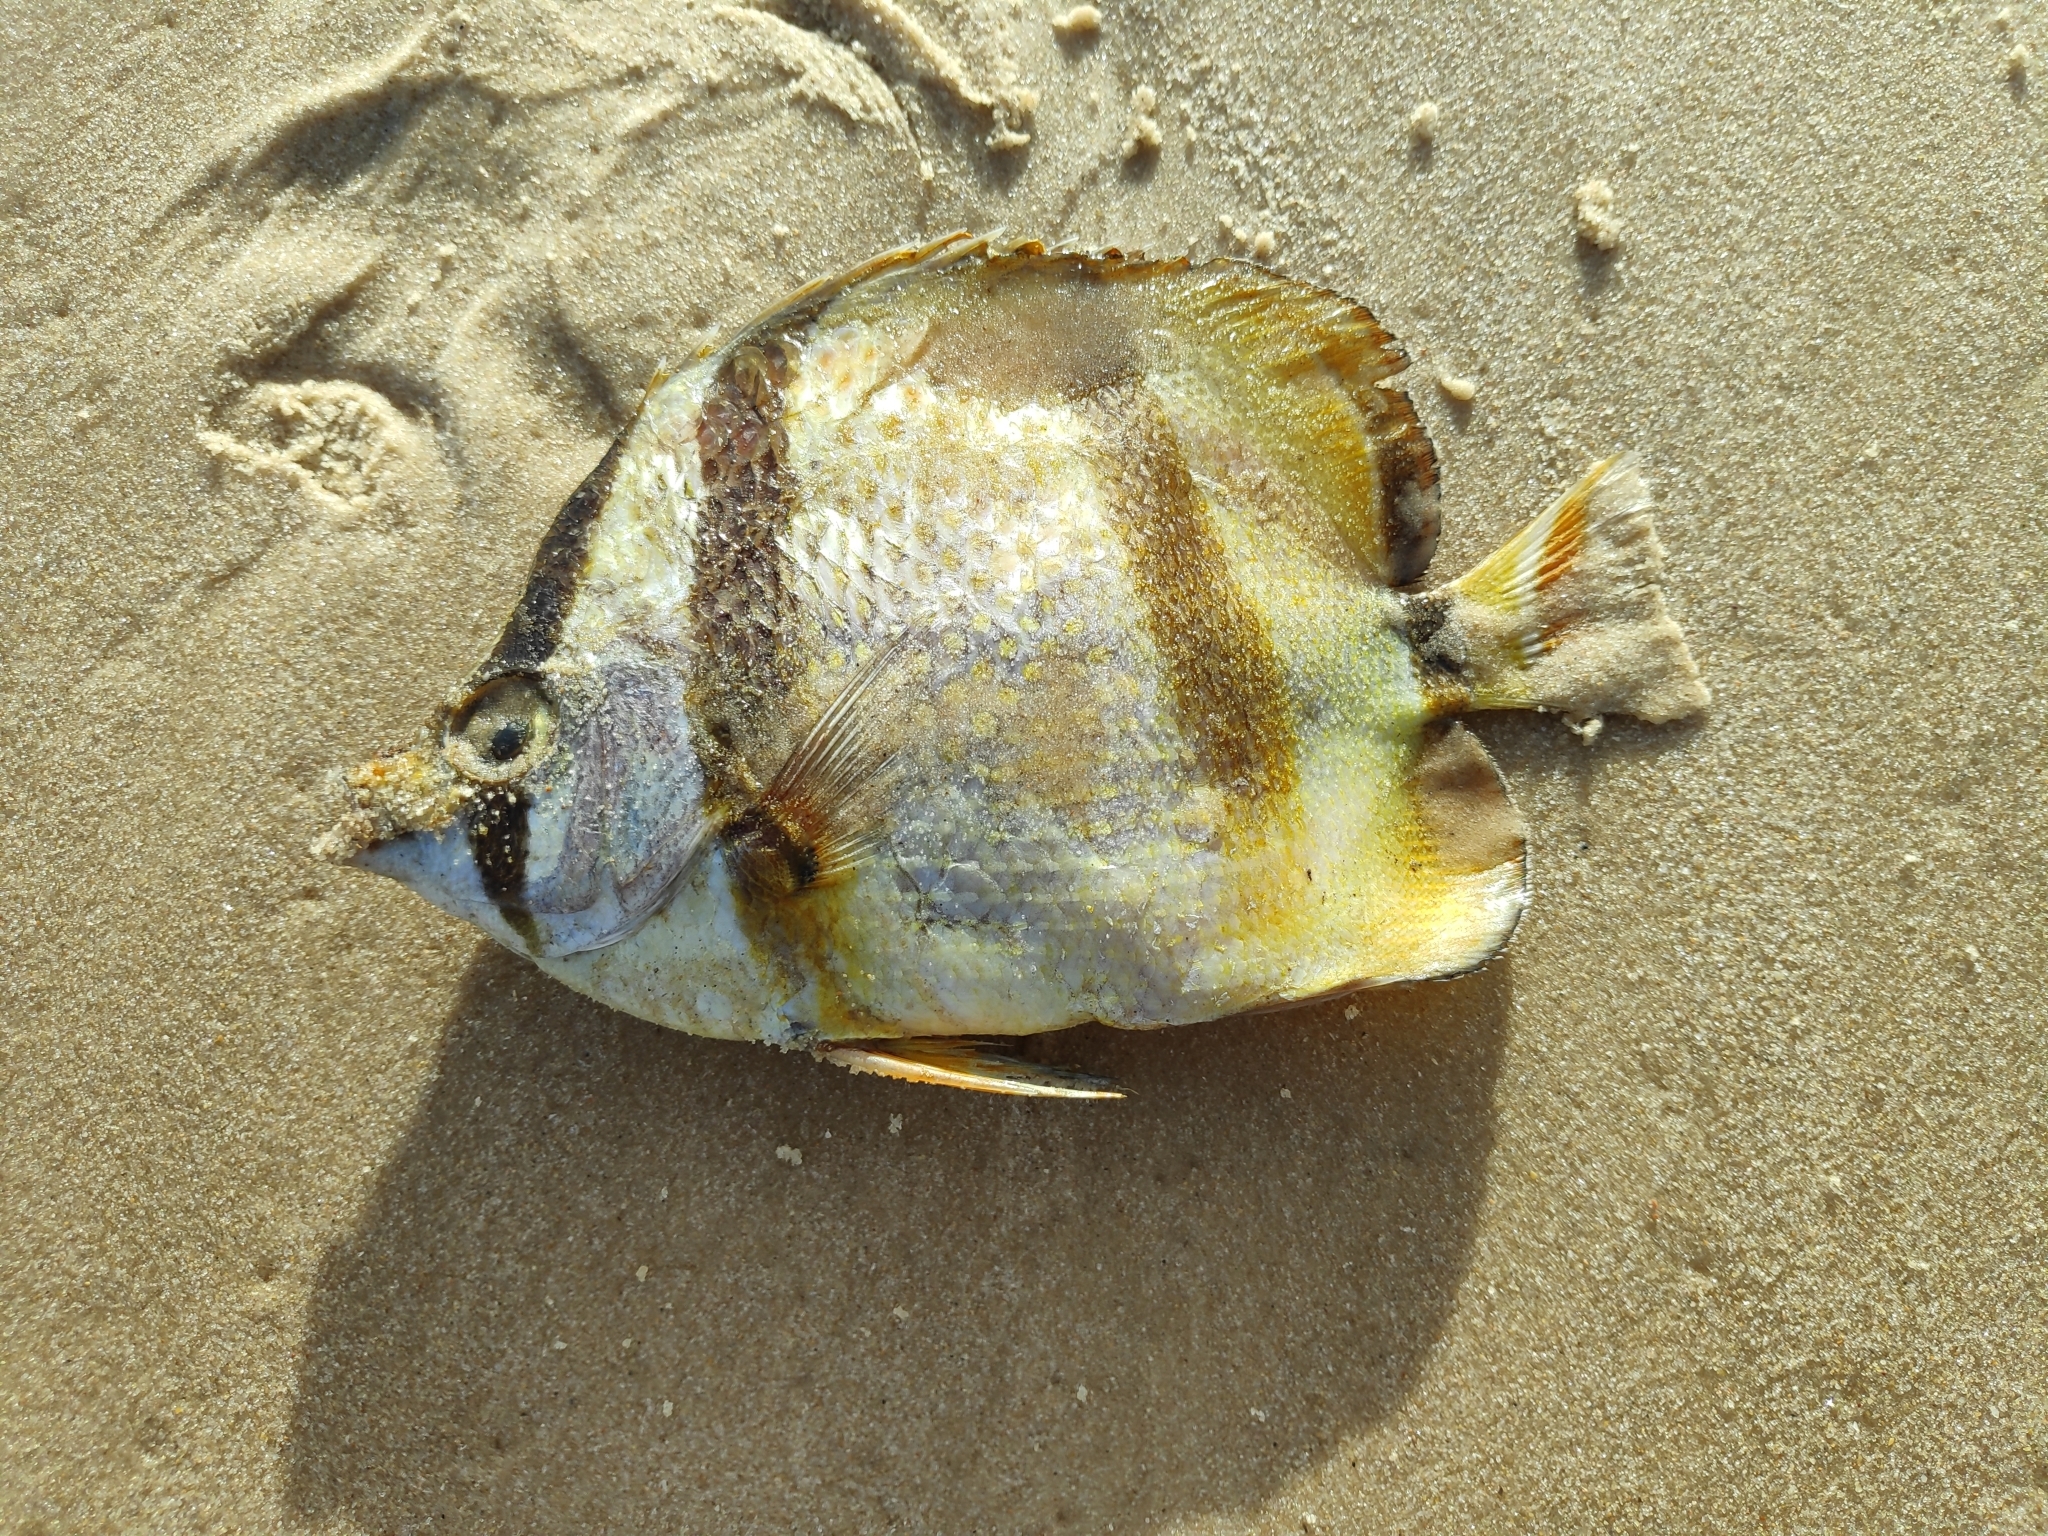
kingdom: Animalia
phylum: Chordata
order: Perciformes
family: Chaetodontidae
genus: Chaetodon
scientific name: Chaetodon hoefleri
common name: Four-banded butterfly fish
